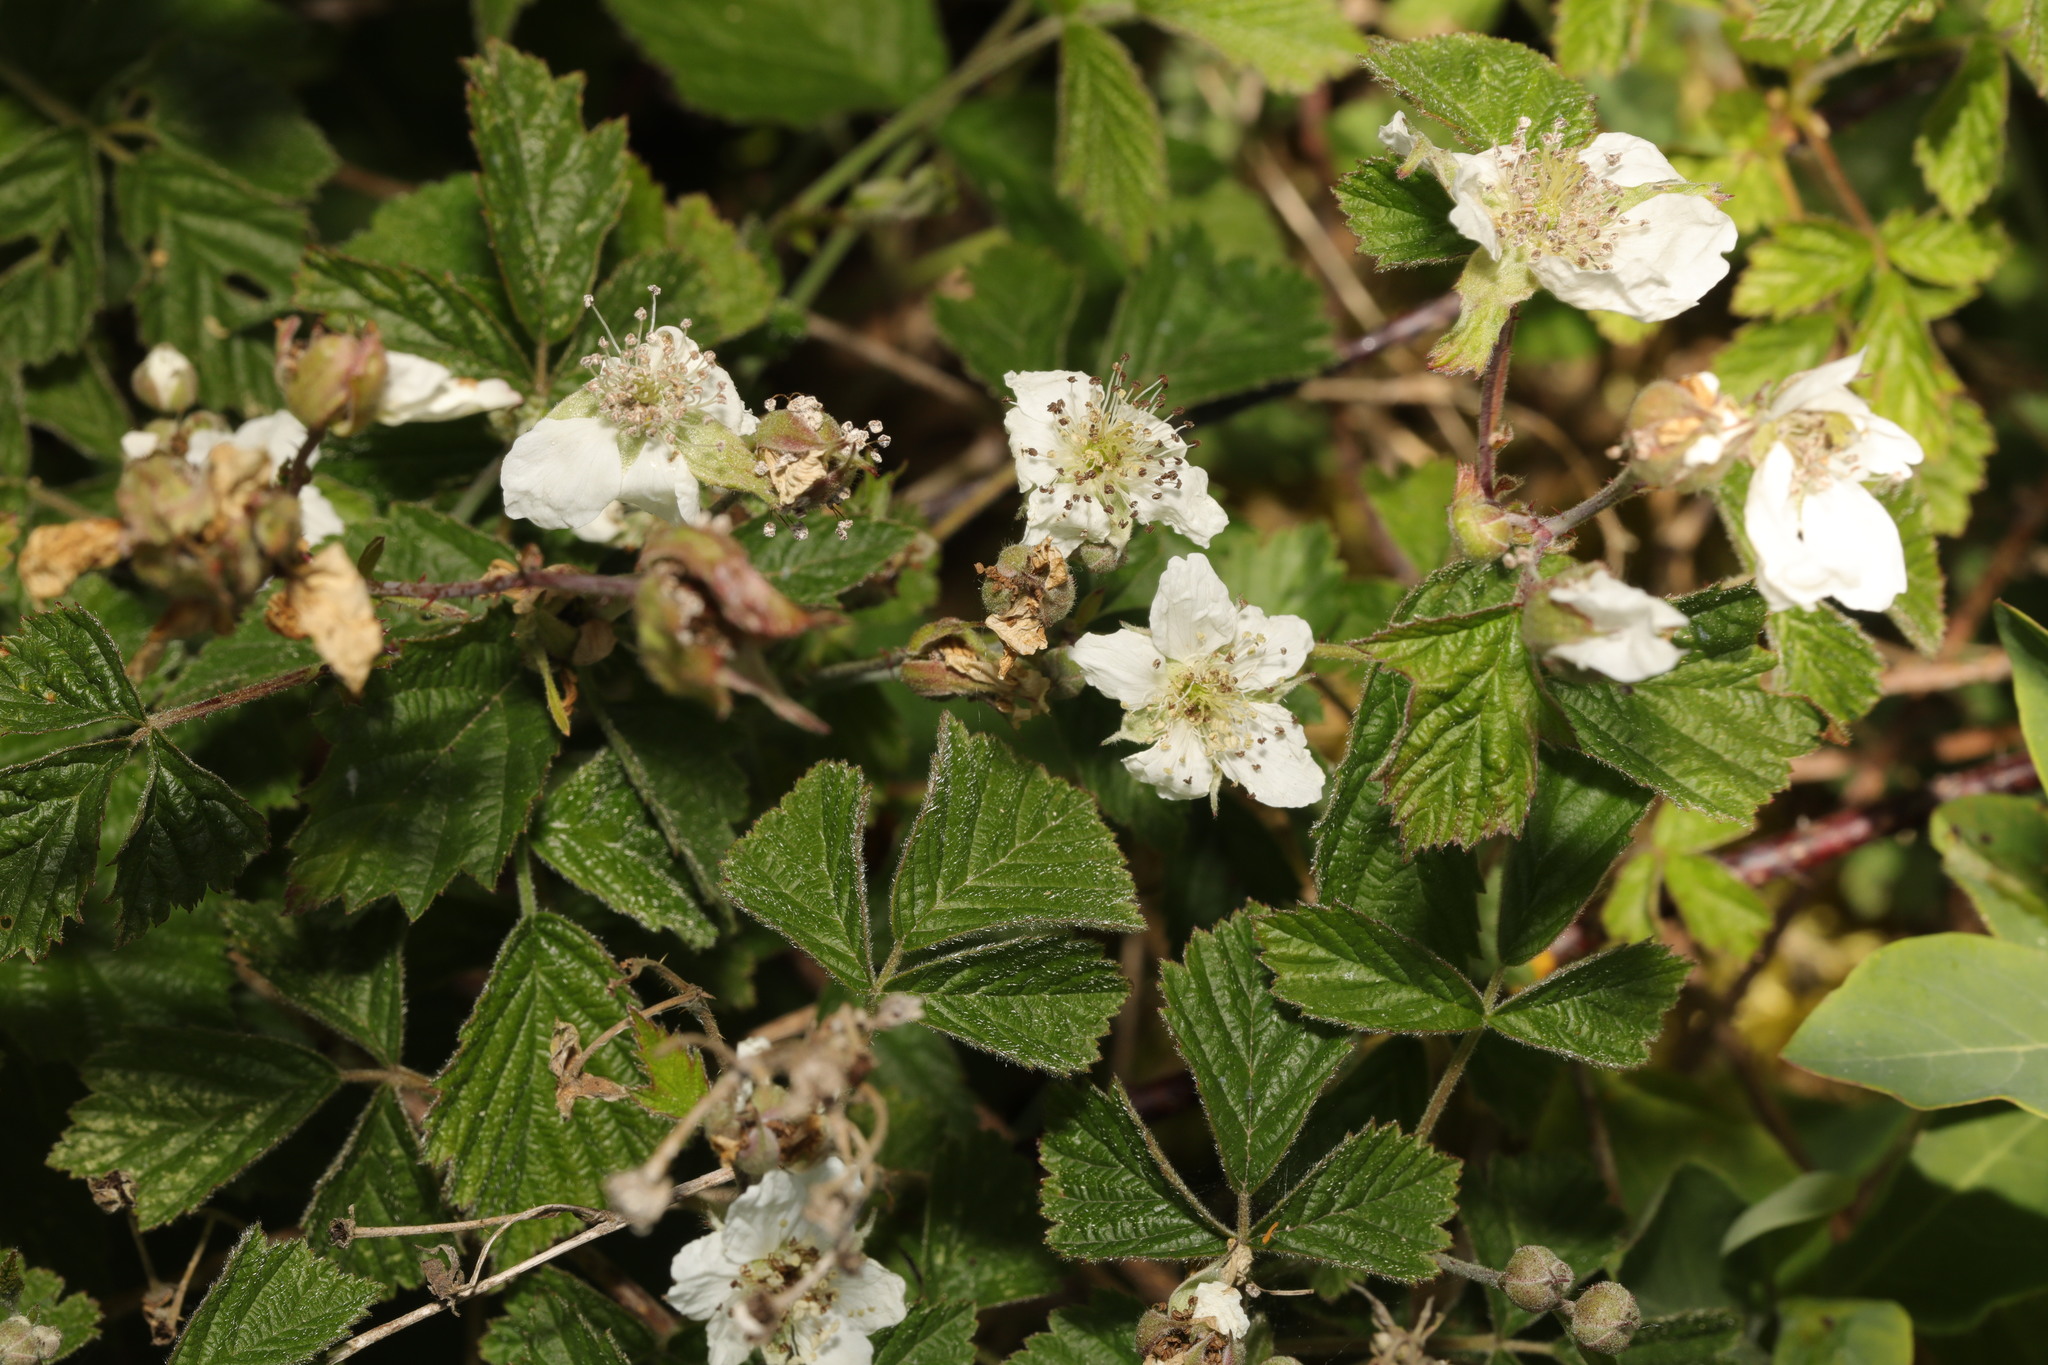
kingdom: Plantae
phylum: Tracheophyta
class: Magnoliopsida
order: Rosales
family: Rosaceae
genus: Rubus
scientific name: Rubus caesius
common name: Dewberry
